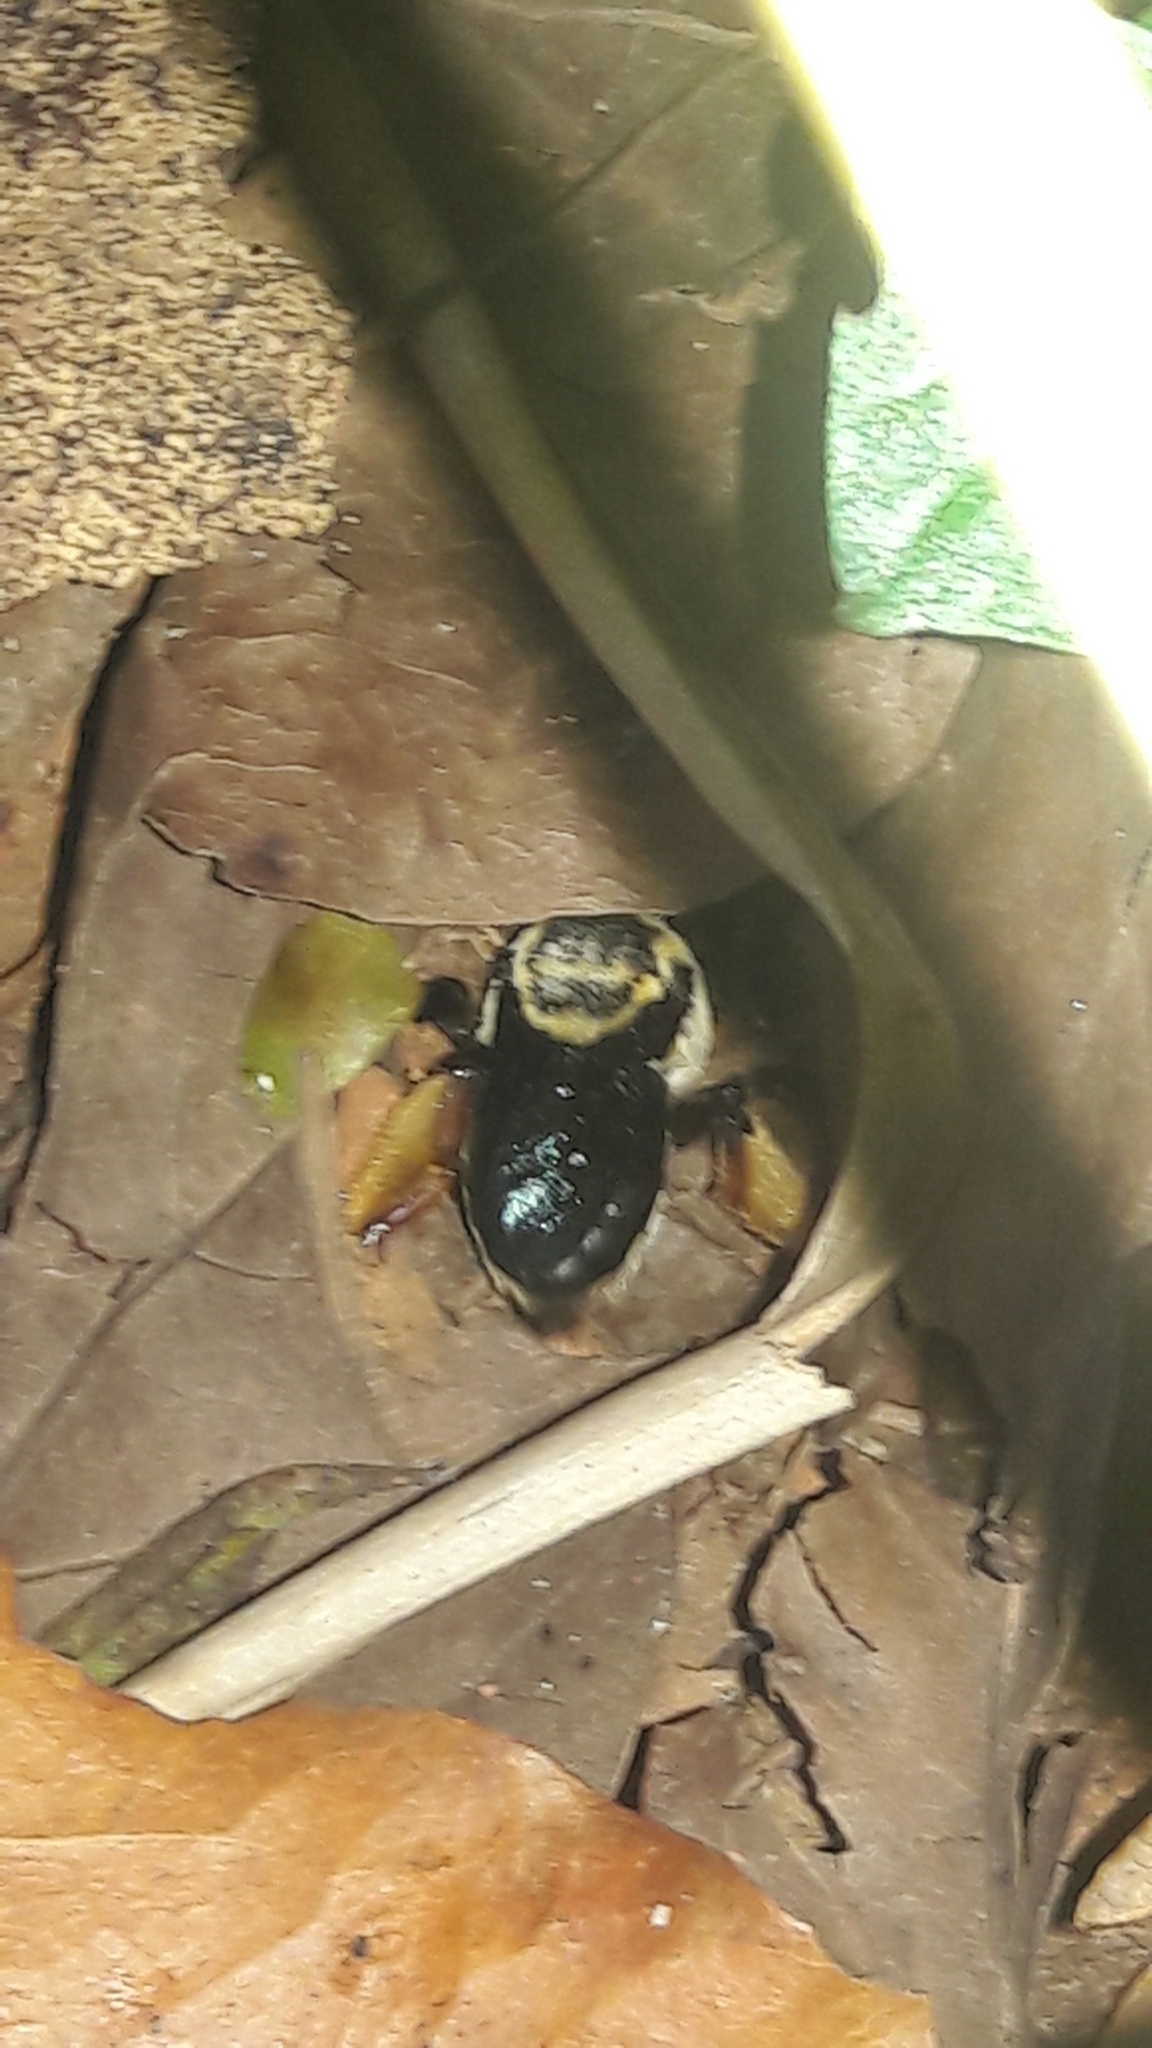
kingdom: Animalia
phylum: Arthropoda
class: Insecta
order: Hymenoptera
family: Apidae
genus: Centris
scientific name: Centris mocsaryi
